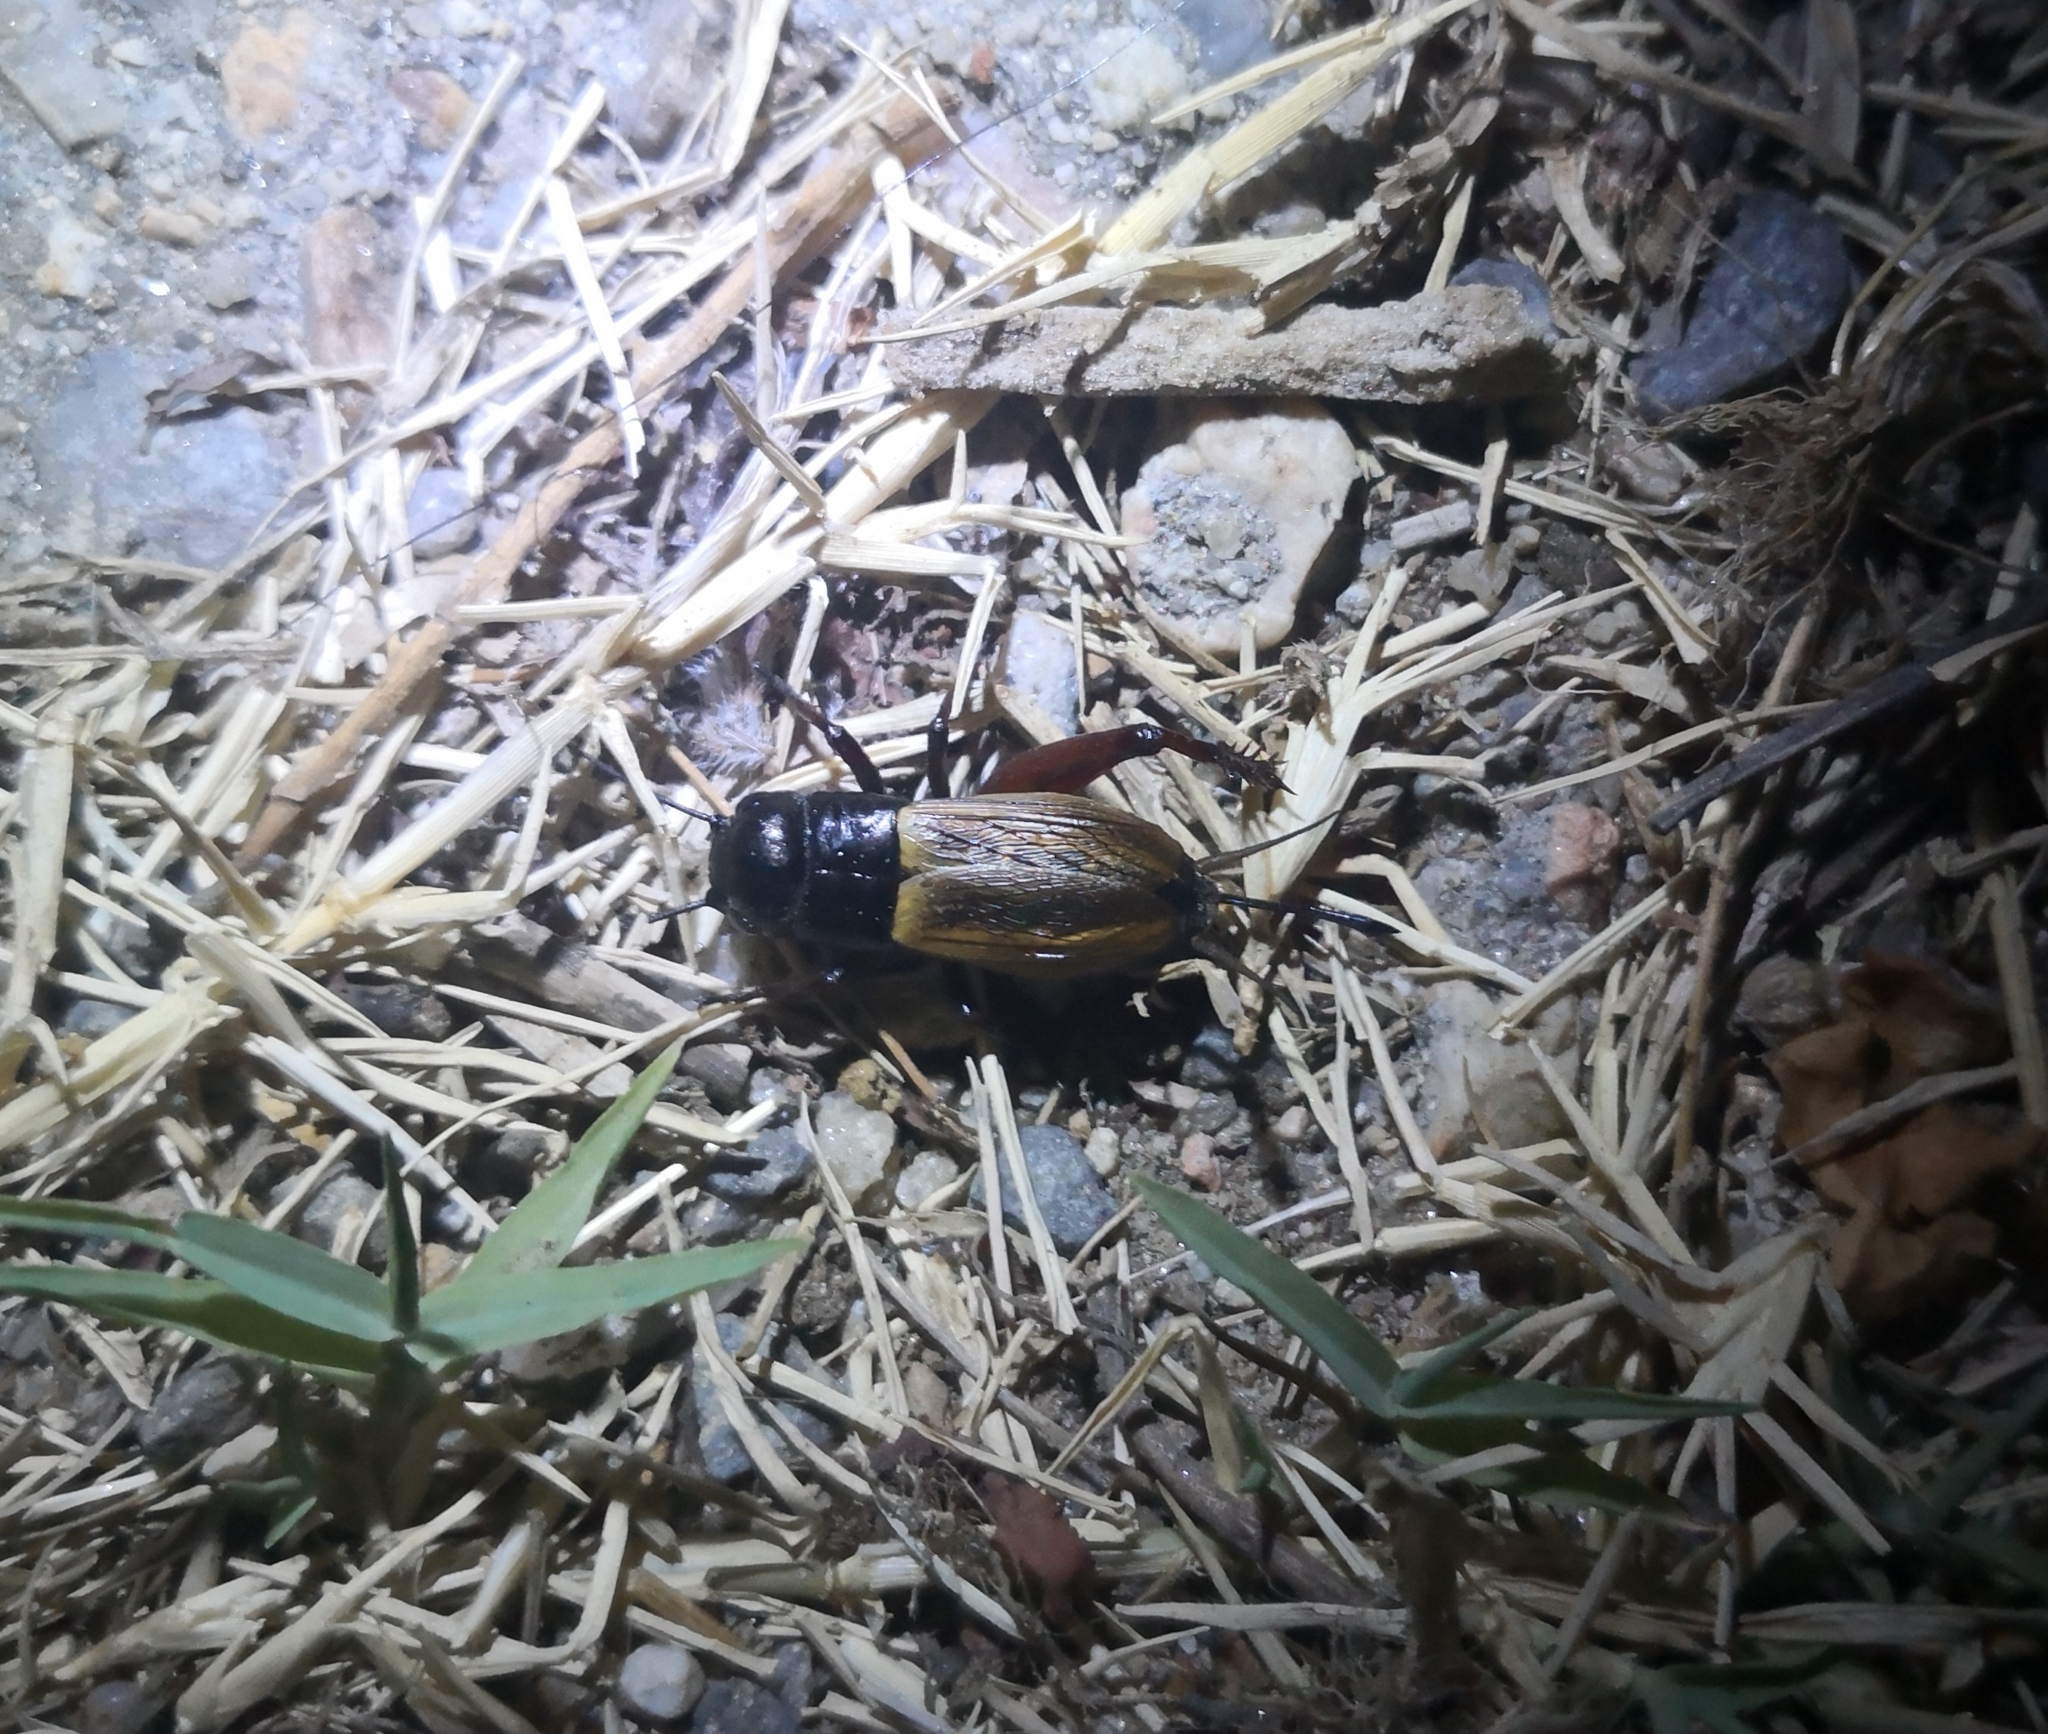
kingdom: Animalia
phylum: Arthropoda
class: Insecta
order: Orthoptera
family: Gryllidae
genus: Gryllus
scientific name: Gryllus campestris
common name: Field cricket
